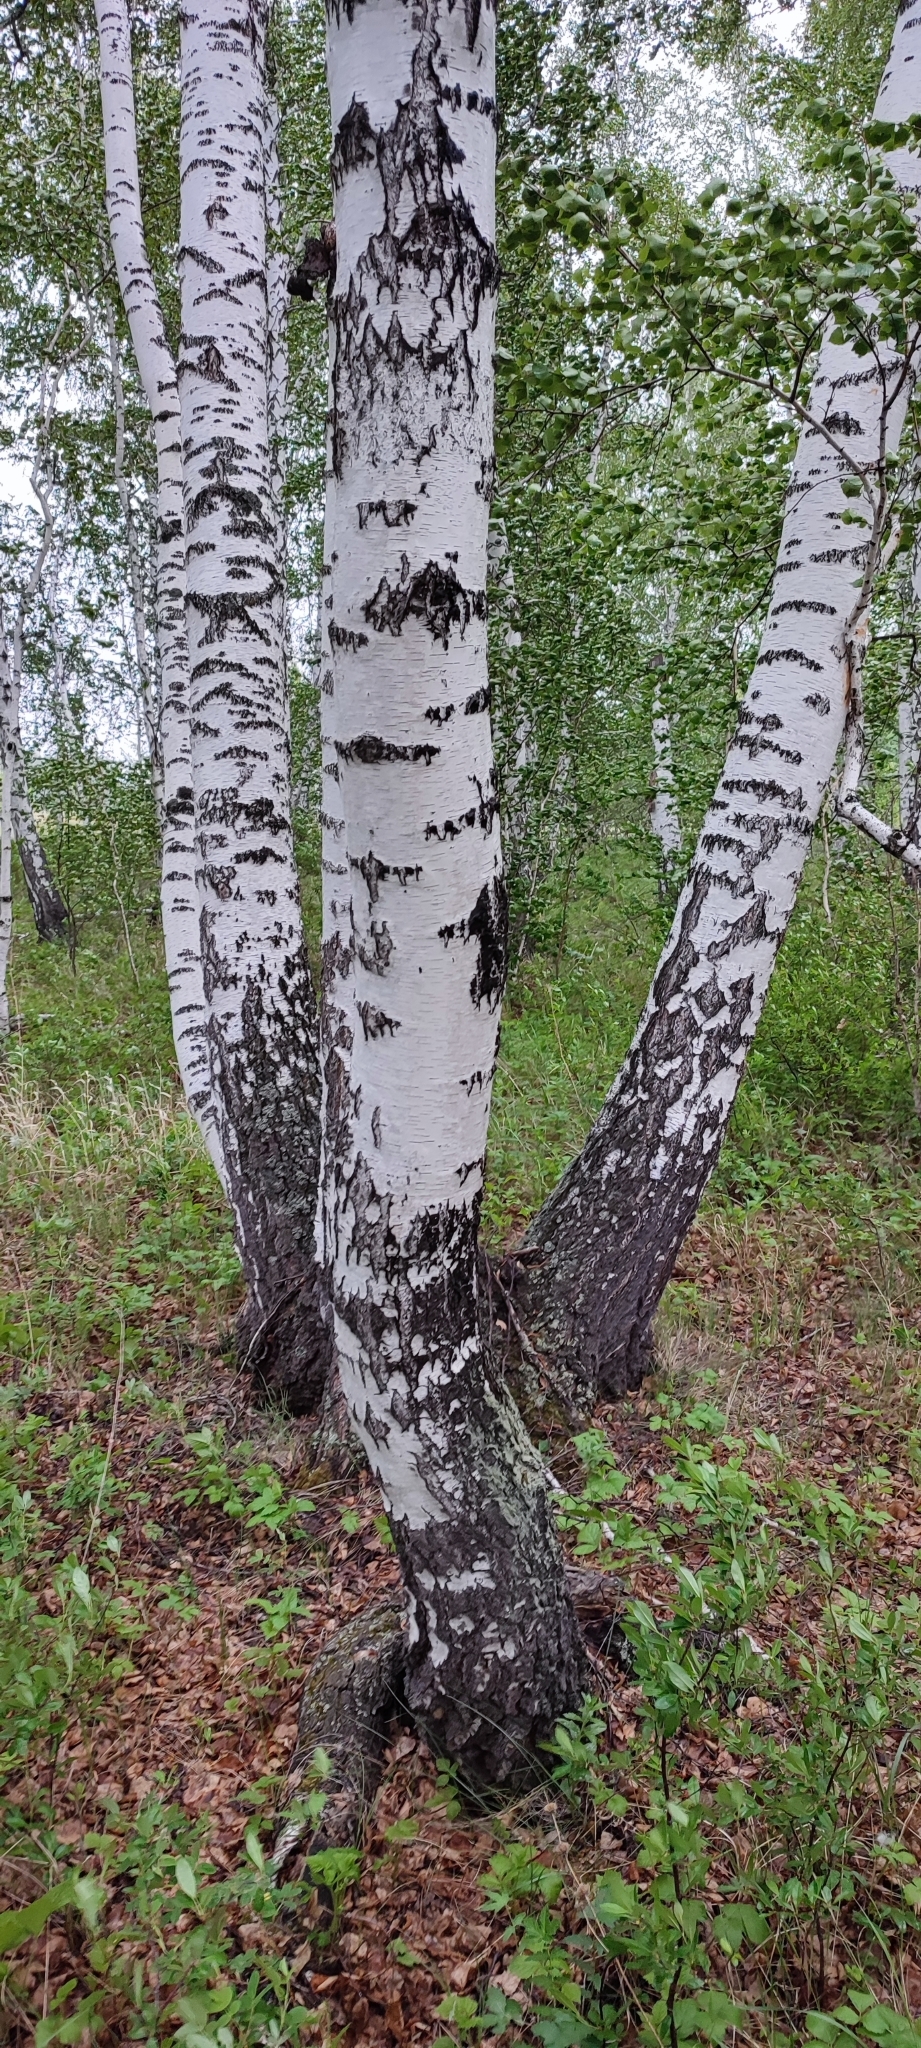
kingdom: Plantae
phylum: Tracheophyta
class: Magnoliopsida
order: Fagales
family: Betulaceae
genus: Betula
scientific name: Betula pendula
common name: Silver birch
